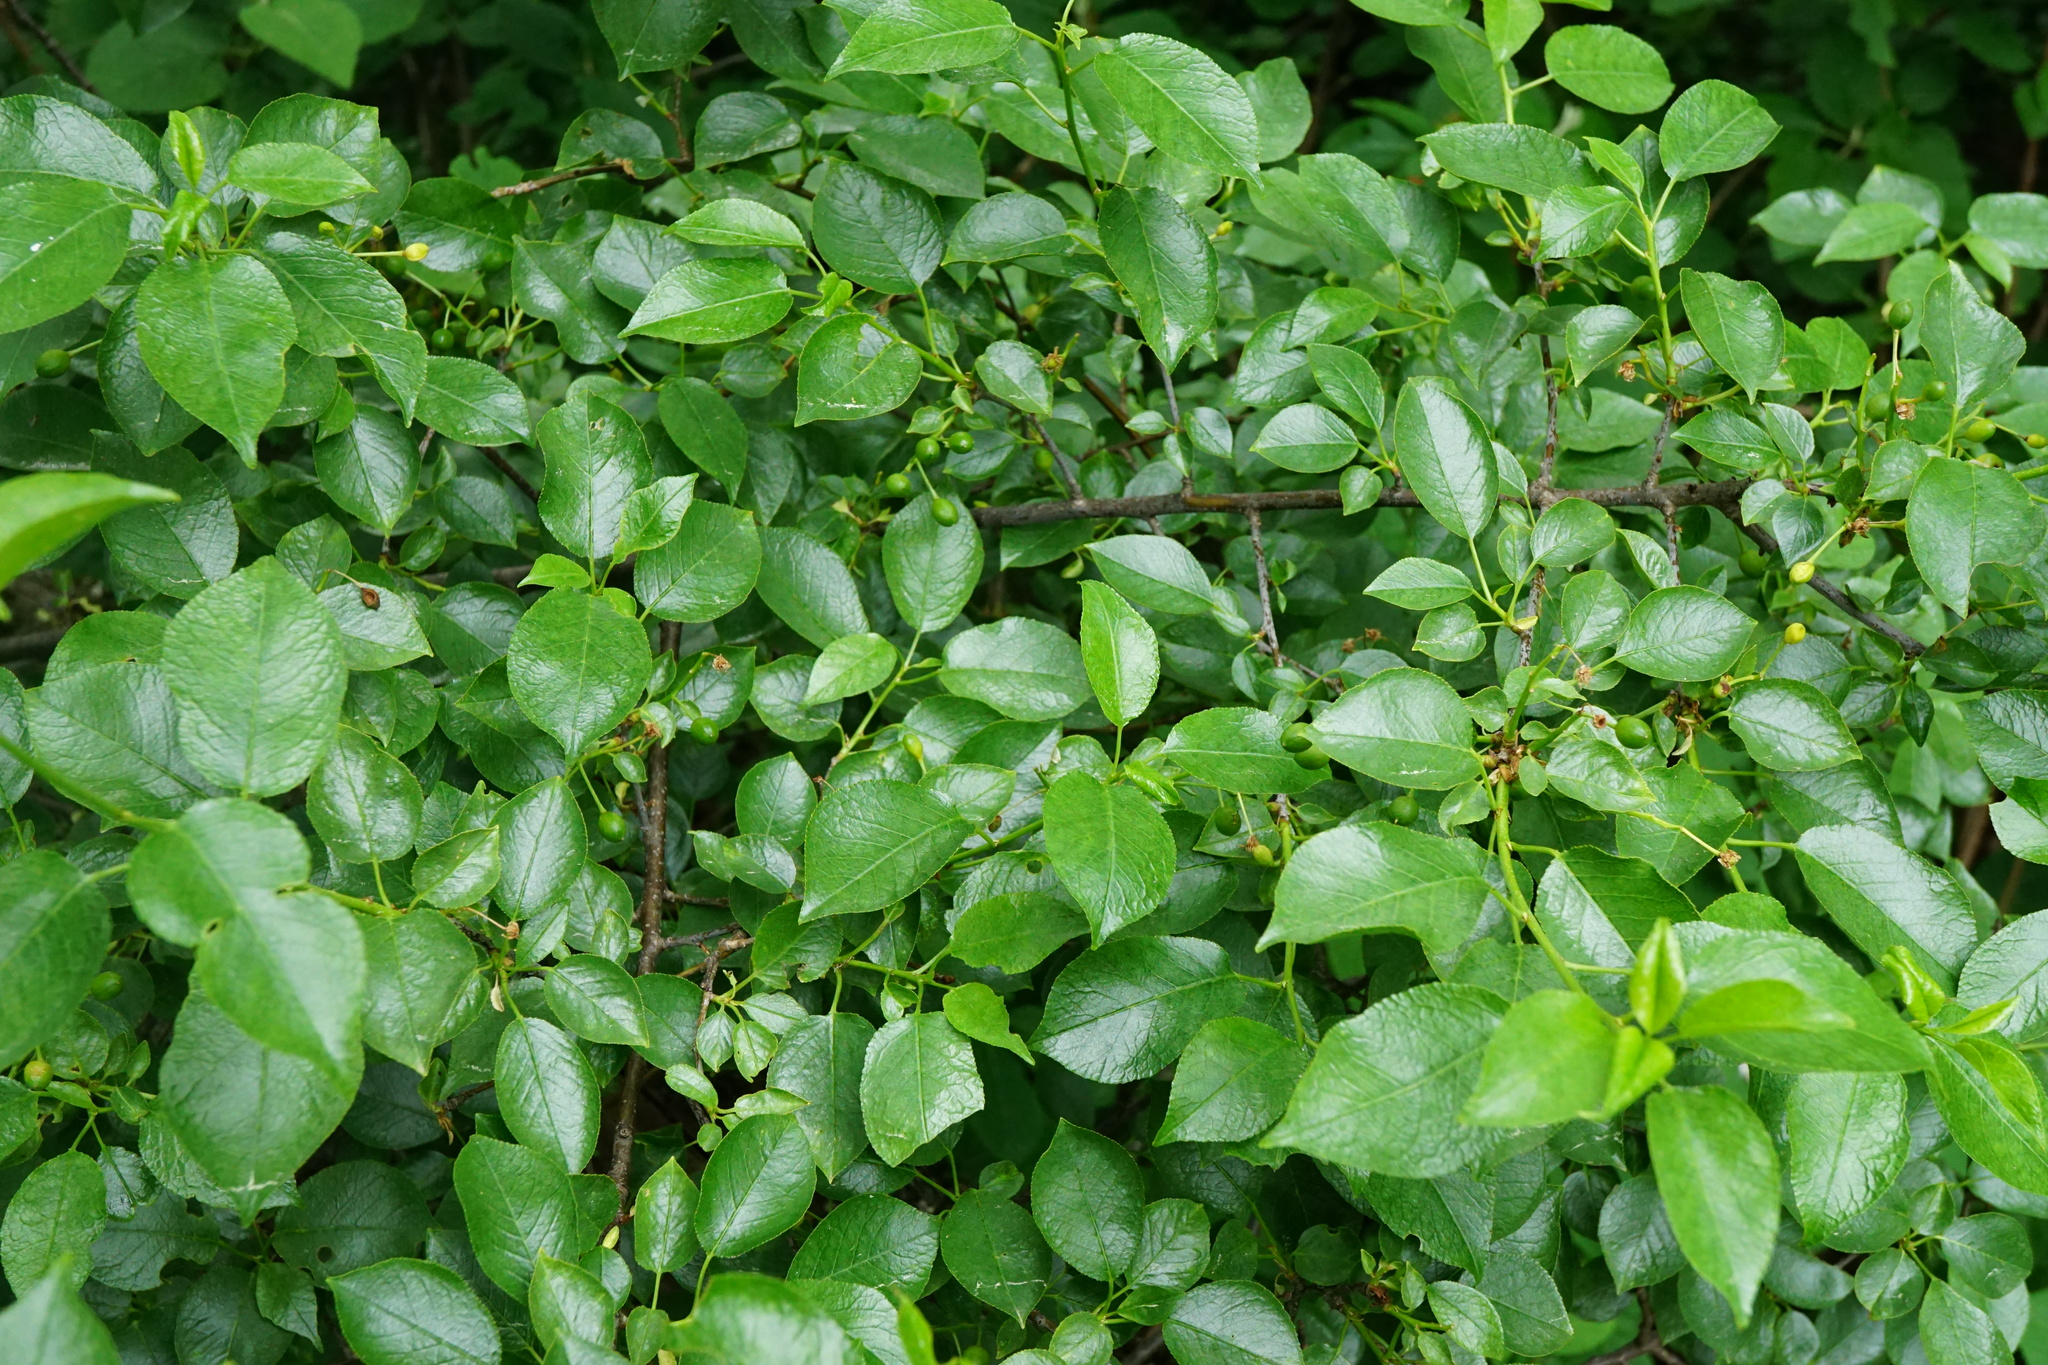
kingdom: Plantae
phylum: Tracheophyta
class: Magnoliopsida
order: Rosales
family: Rosaceae
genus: Prunus
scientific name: Prunus mahaleb
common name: Mahaleb cherry
